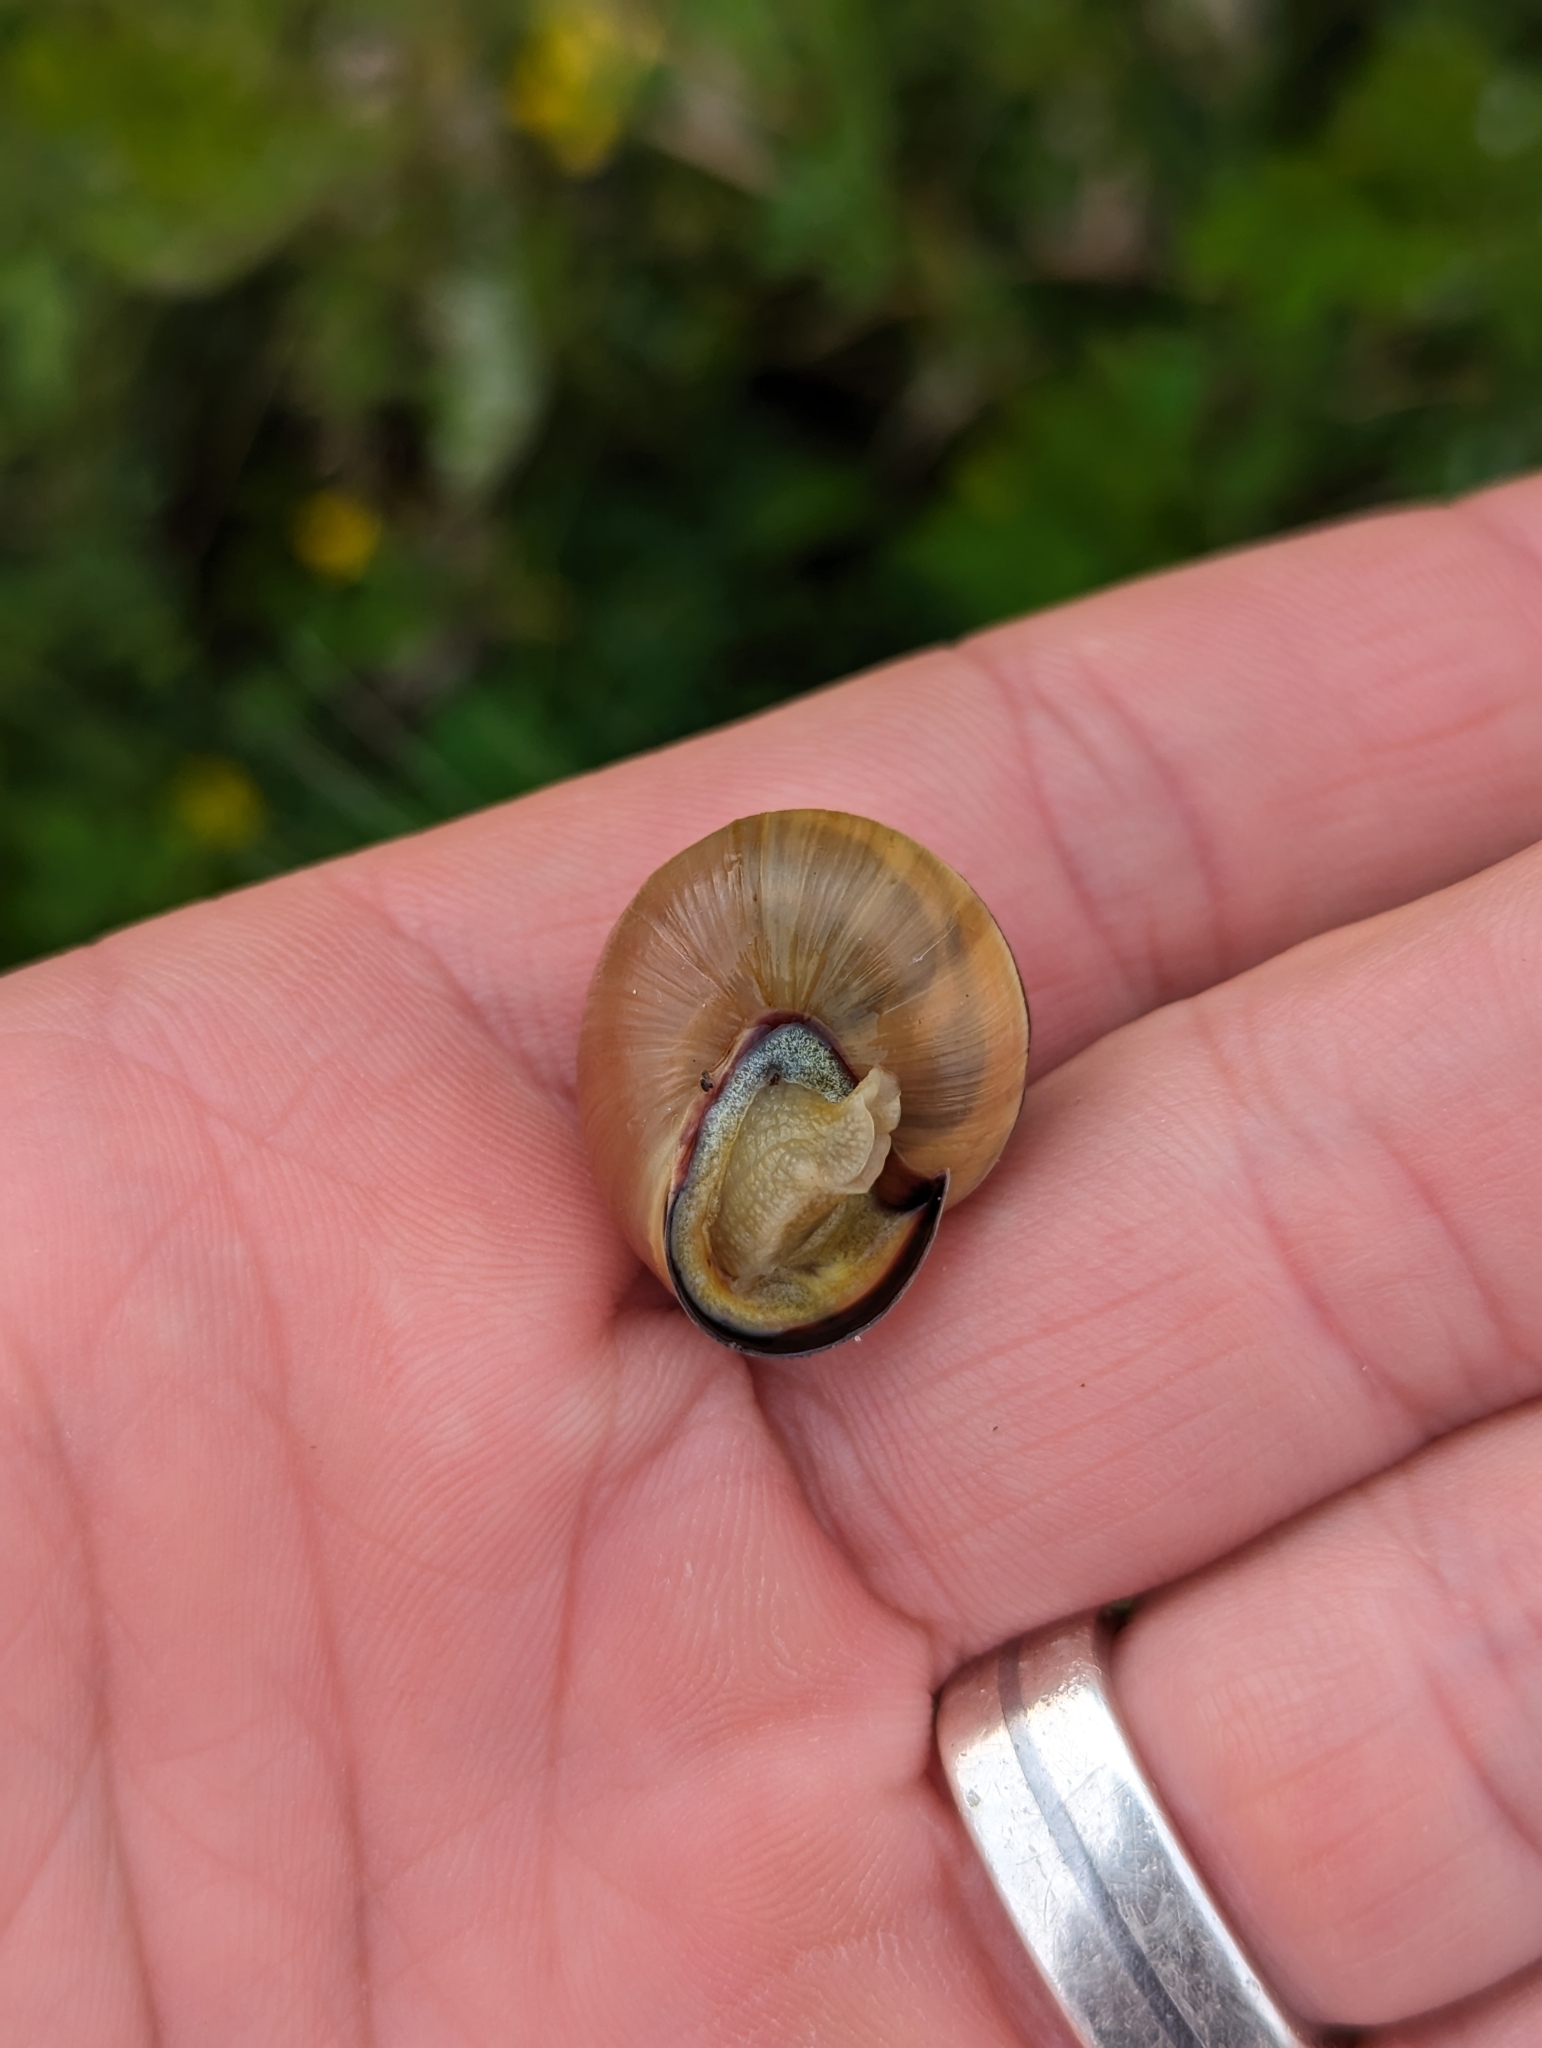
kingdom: Animalia
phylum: Mollusca
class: Gastropoda
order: Stylommatophora
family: Helicidae
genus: Cepaea
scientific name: Cepaea nemoralis
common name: Grovesnail
